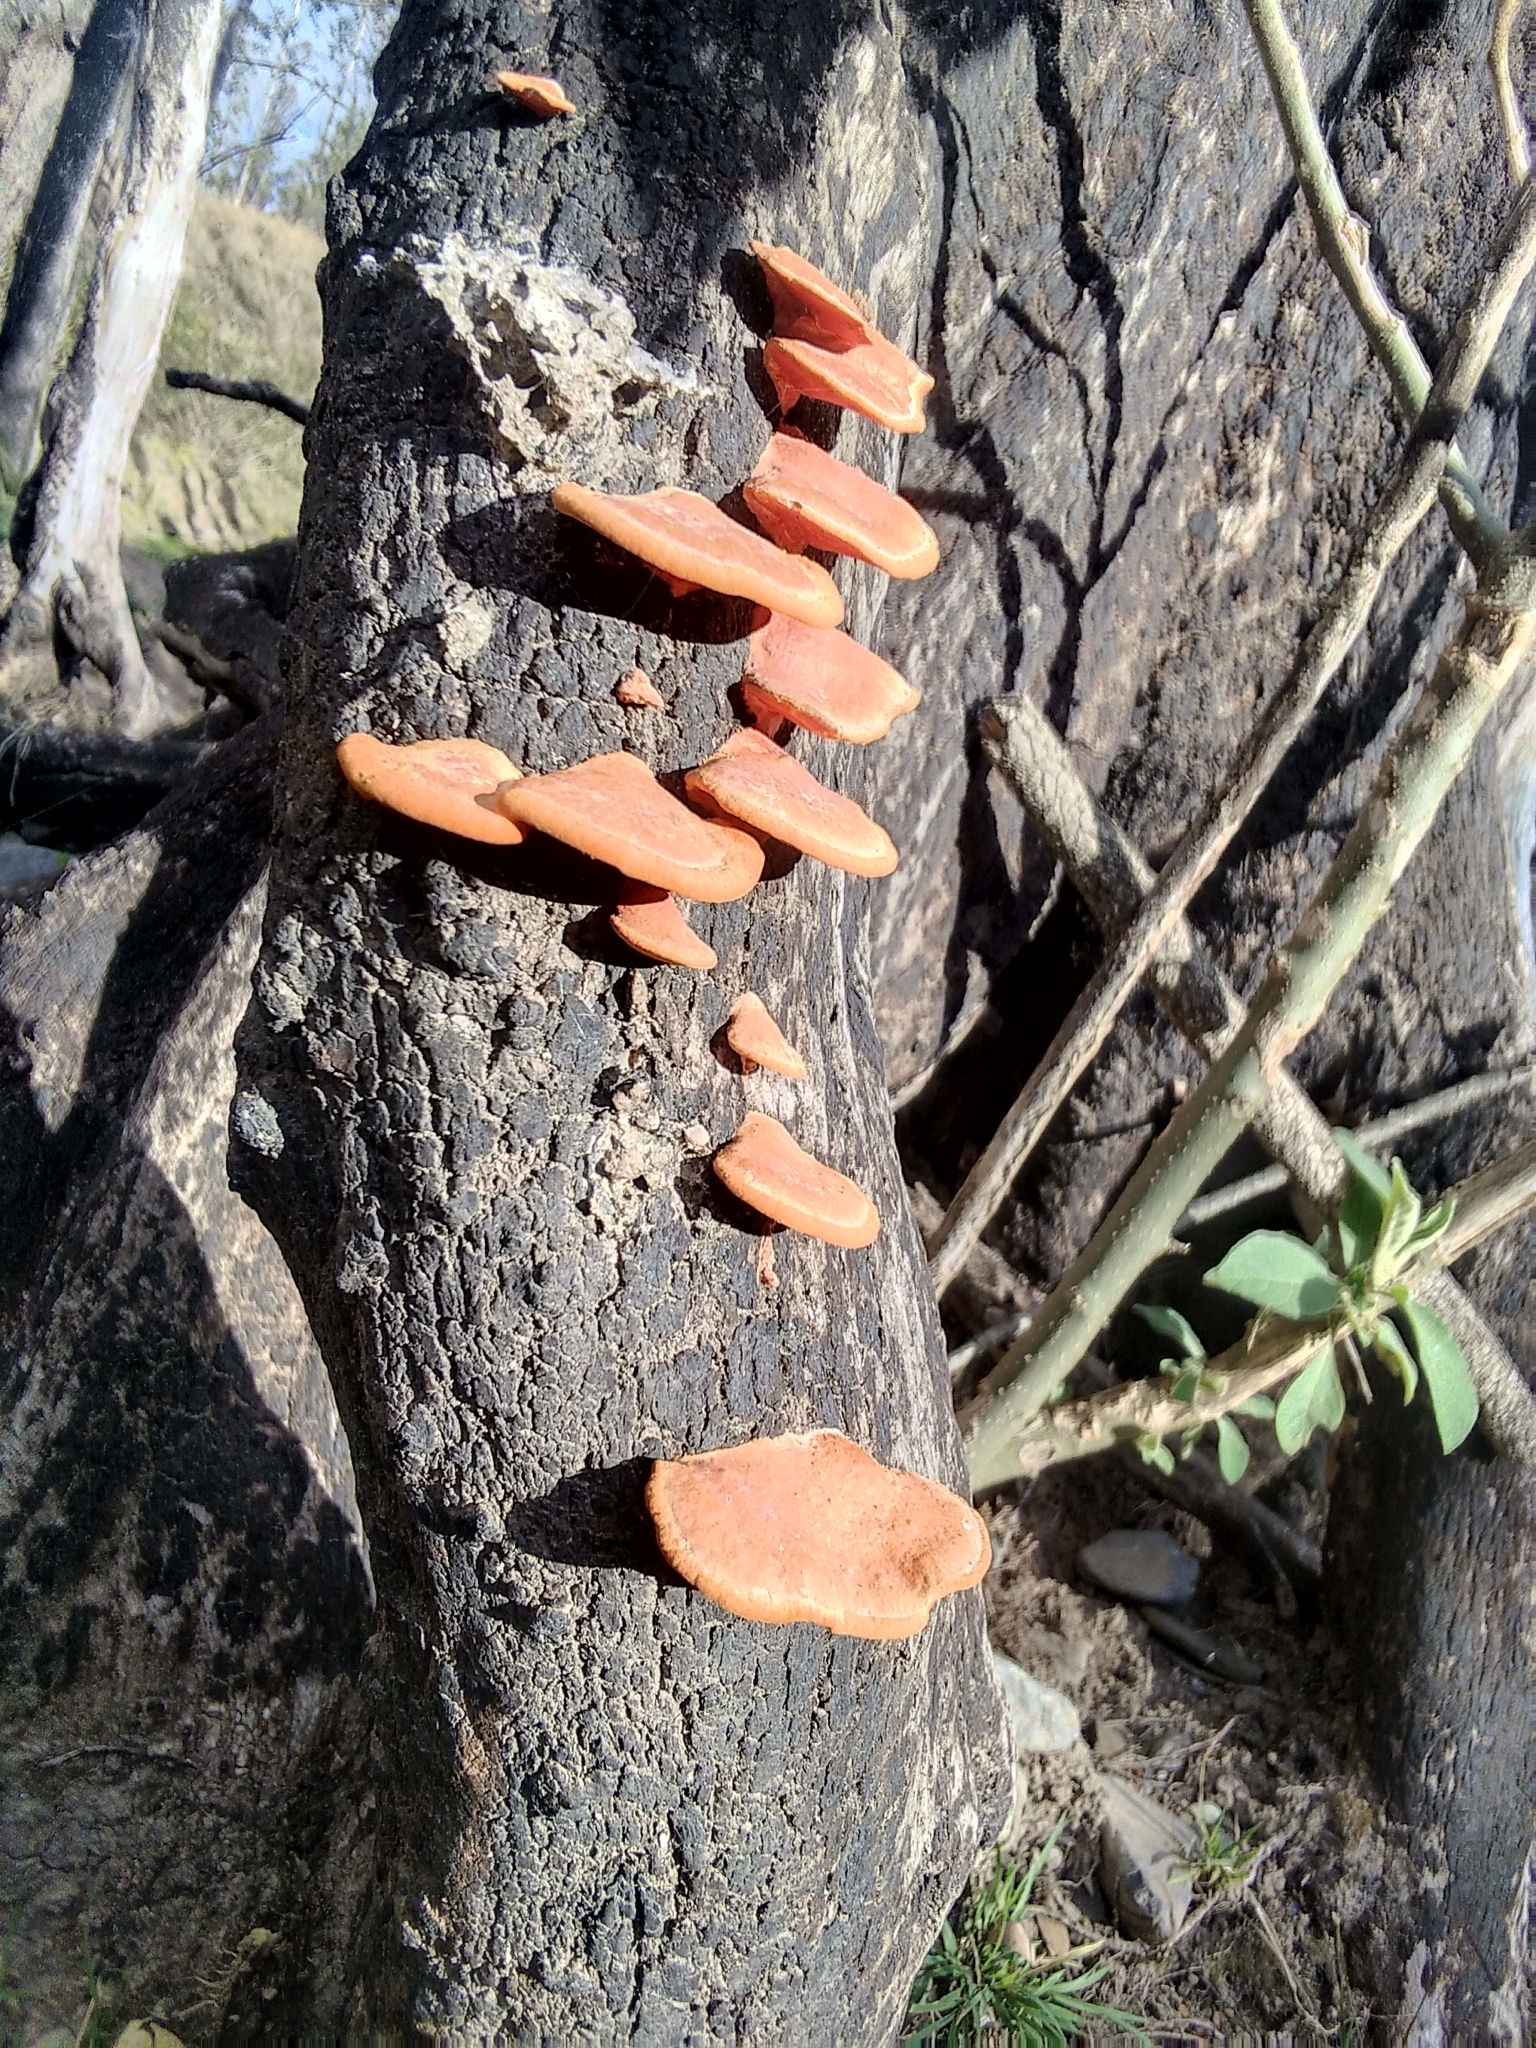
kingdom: Fungi
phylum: Basidiomycota
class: Agaricomycetes
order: Polyporales
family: Polyporaceae
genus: Trametes
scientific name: Trametes coccinea
